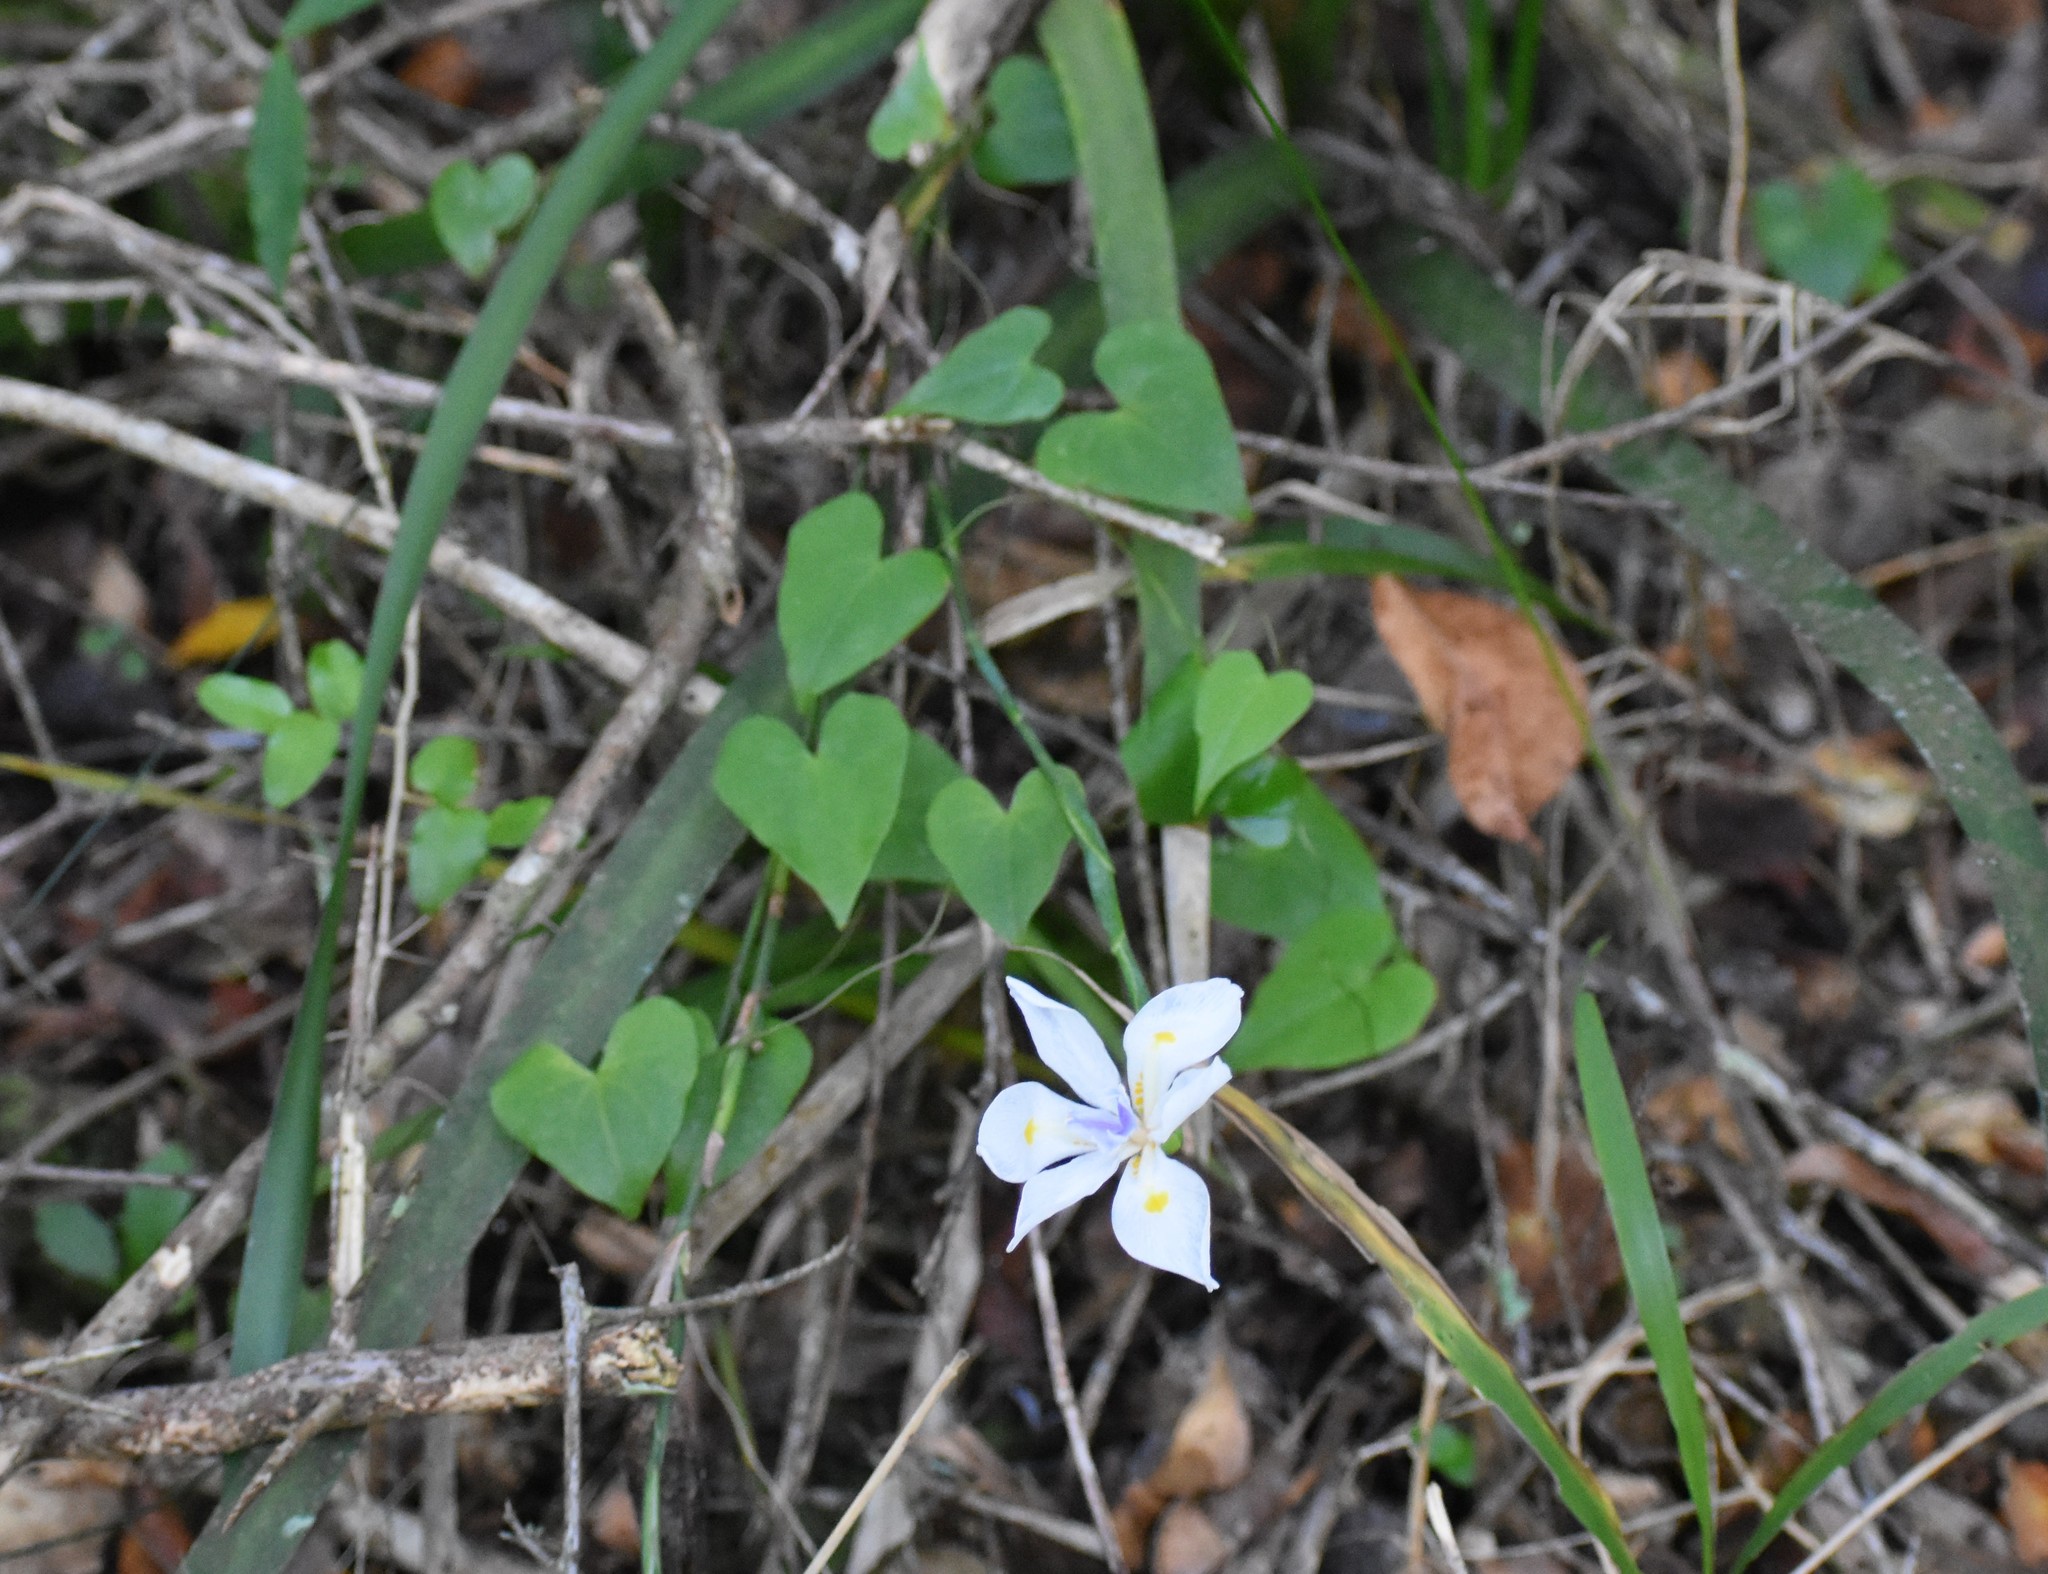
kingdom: Plantae
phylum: Tracheophyta
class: Liliopsida
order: Asparagales
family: Iridaceae
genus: Dietes
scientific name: Dietes iridioides
